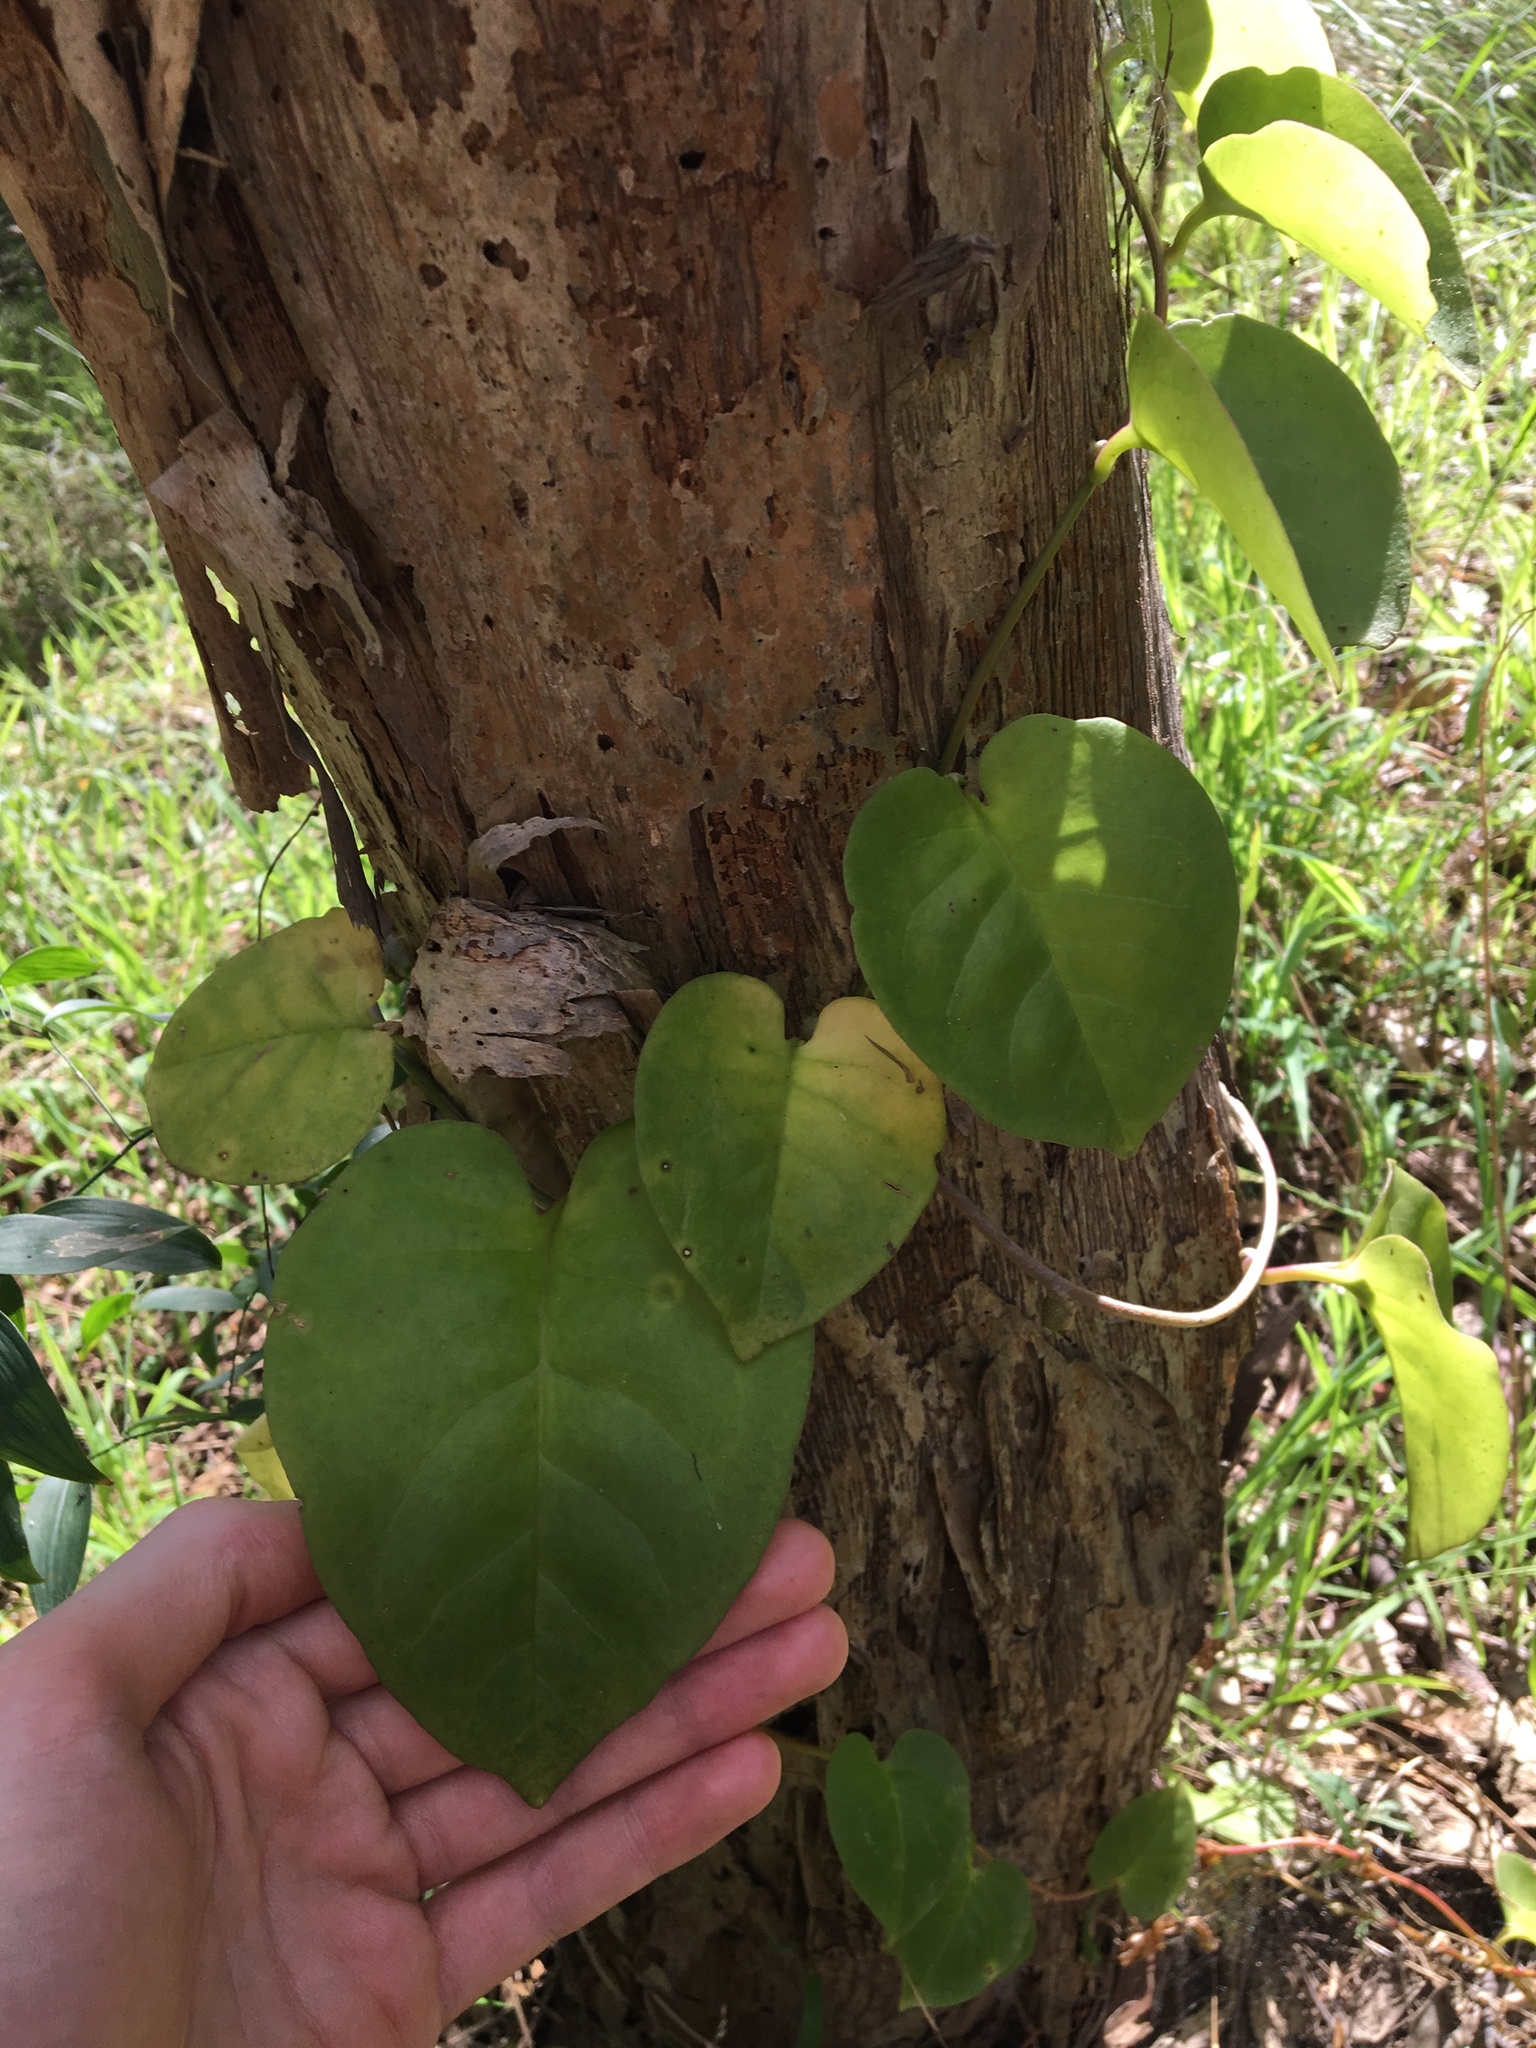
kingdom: Plantae
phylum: Tracheophyta
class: Magnoliopsida
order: Caryophyllales
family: Basellaceae
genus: Anredera
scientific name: Anredera cordifolia
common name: Heartleaf madeiravine
